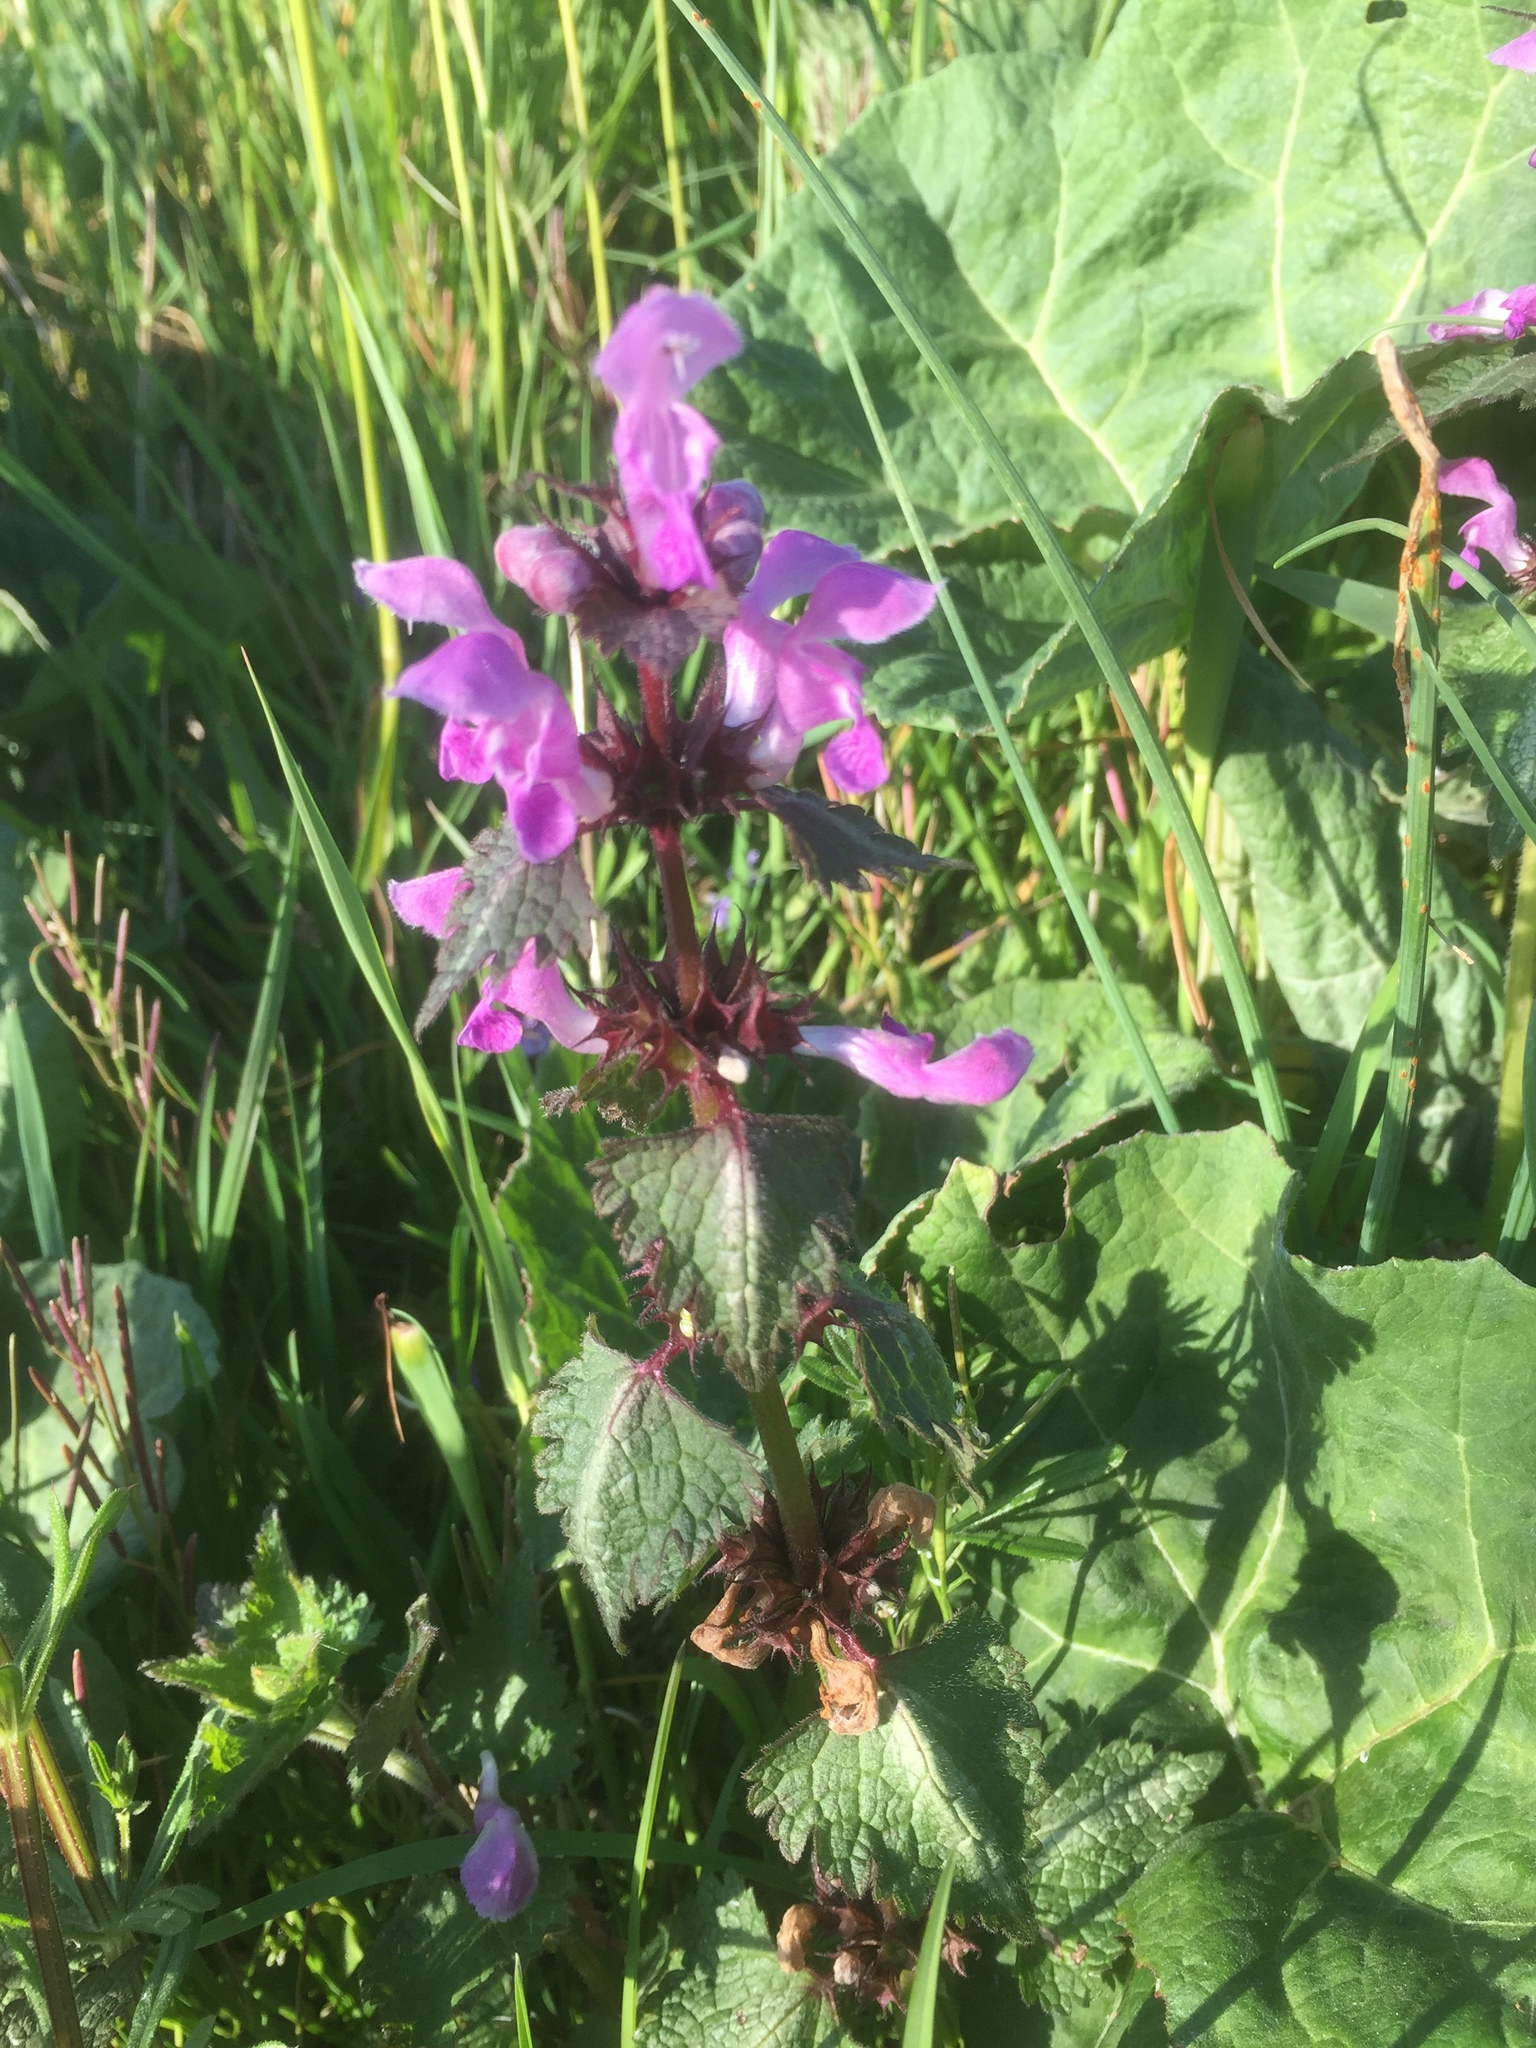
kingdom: Plantae
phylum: Tracheophyta
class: Magnoliopsida
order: Lamiales
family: Lamiaceae
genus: Lamium
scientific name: Lamium maculatum
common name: Spotted dead-nettle
